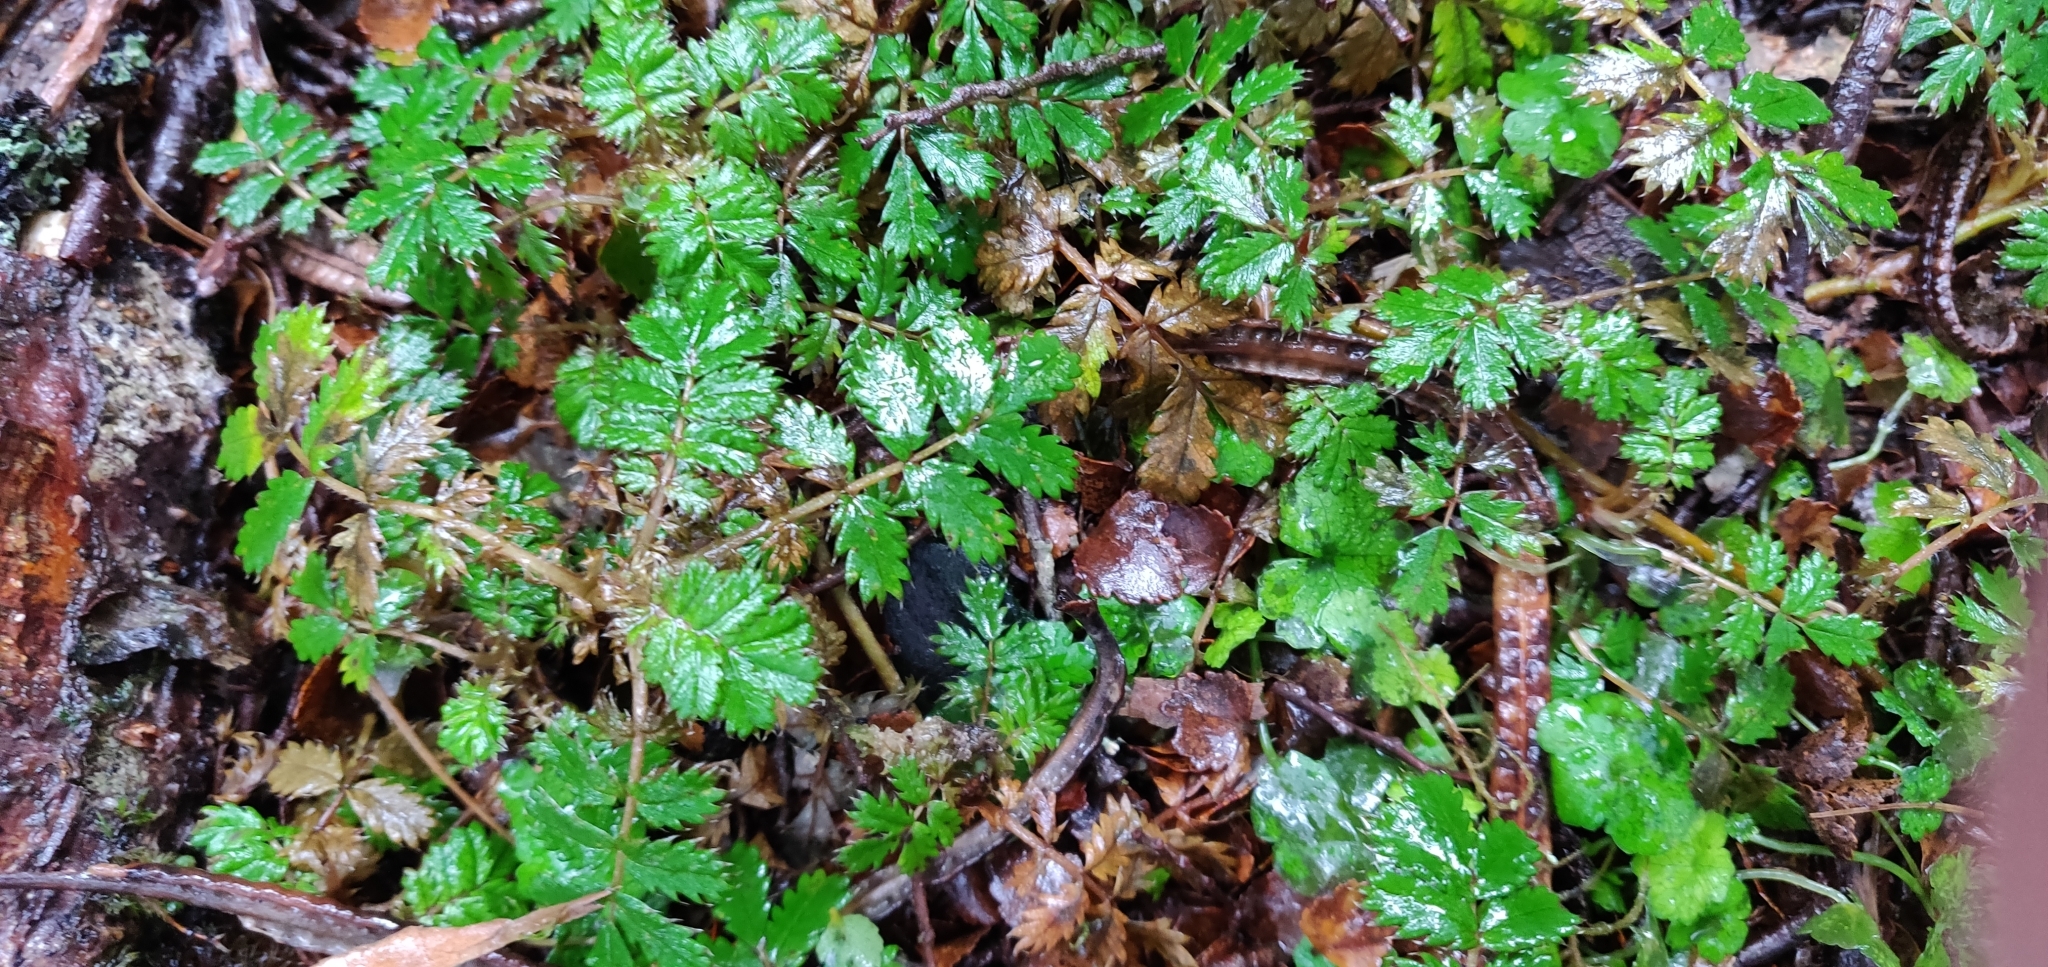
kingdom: Plantae
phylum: Tracheophyta
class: Magnoliopsida
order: Rosales
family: Rosaceae
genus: Acaena
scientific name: Acaena anserinifolia
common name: Bronze pirri-pirri-bur
